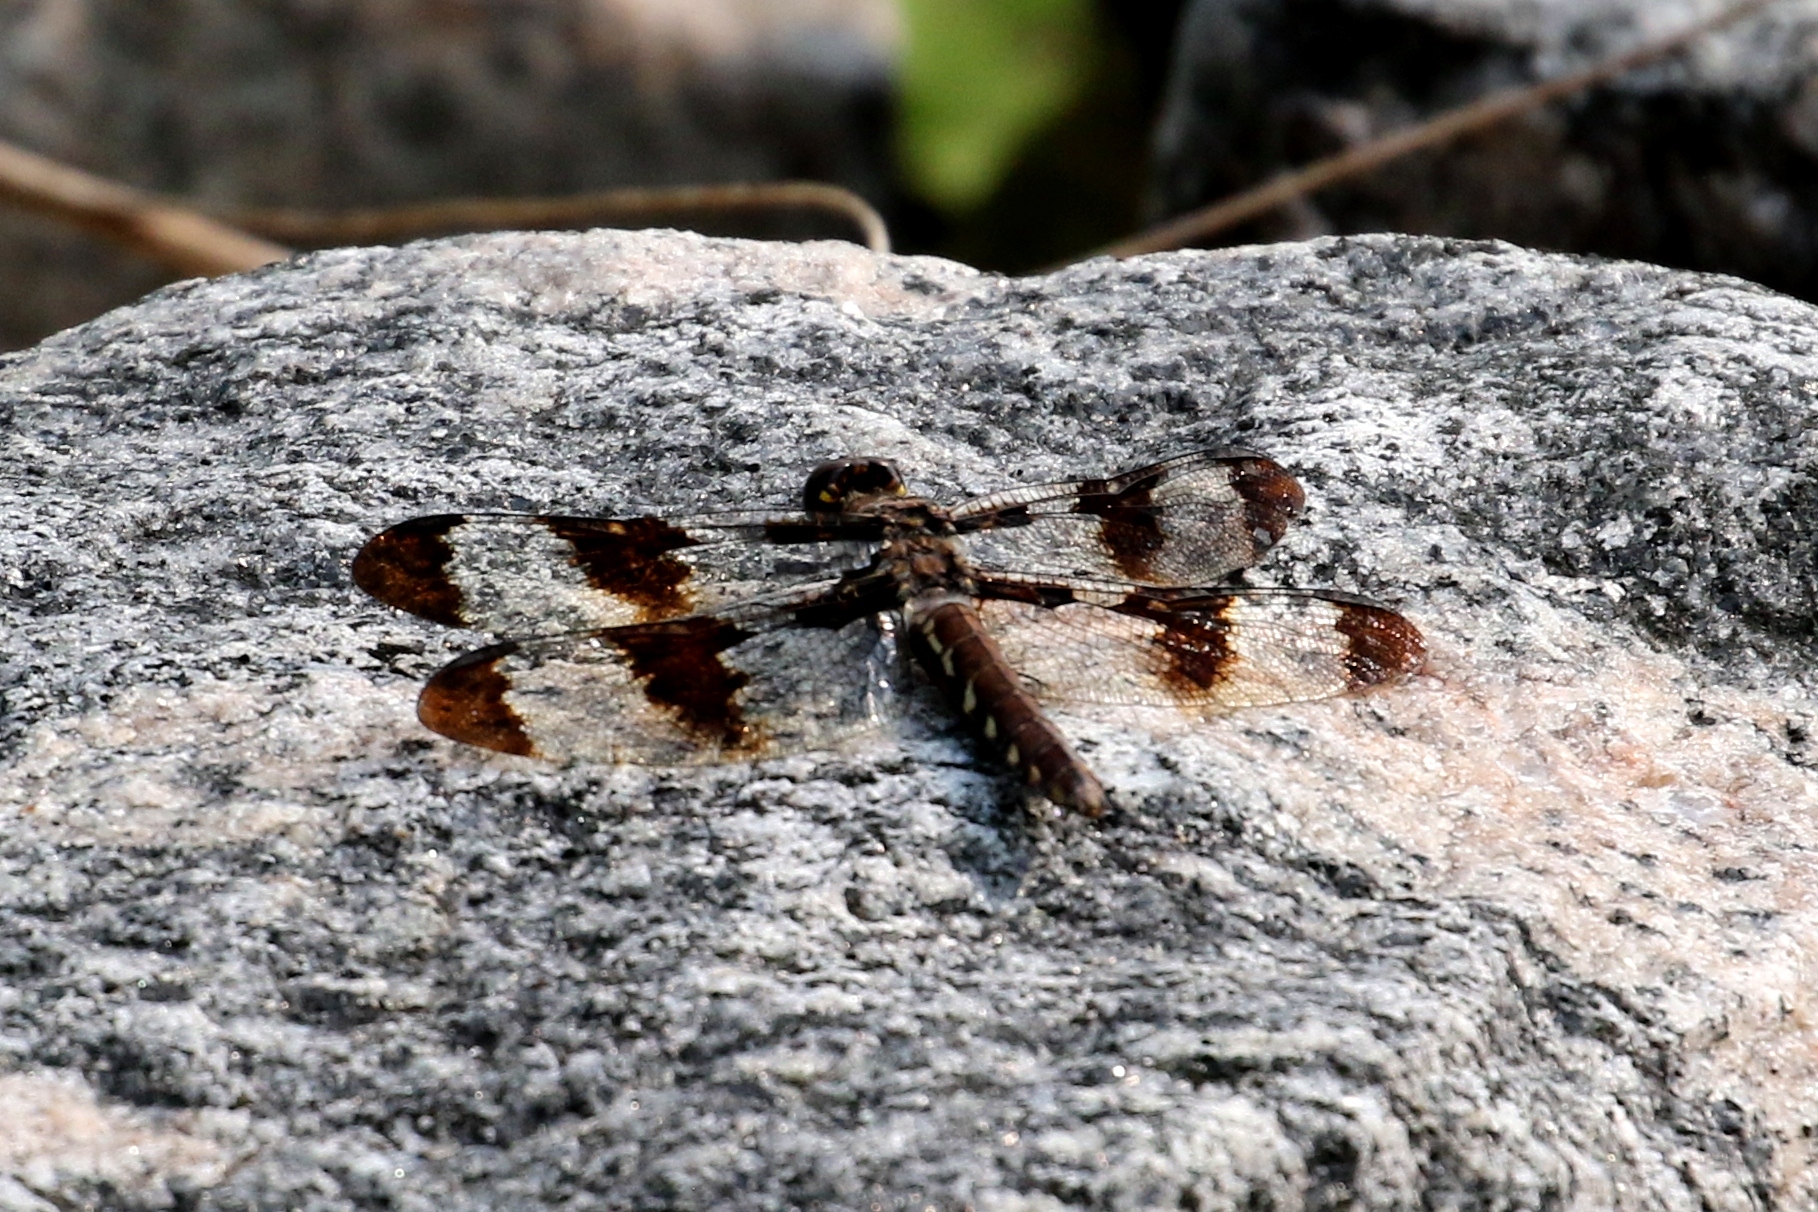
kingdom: Animalia
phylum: Arthropoda
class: Insecta
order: Odonata
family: Libellulidae
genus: Plathemis
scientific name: Plathemis lydia
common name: Common whitetail
